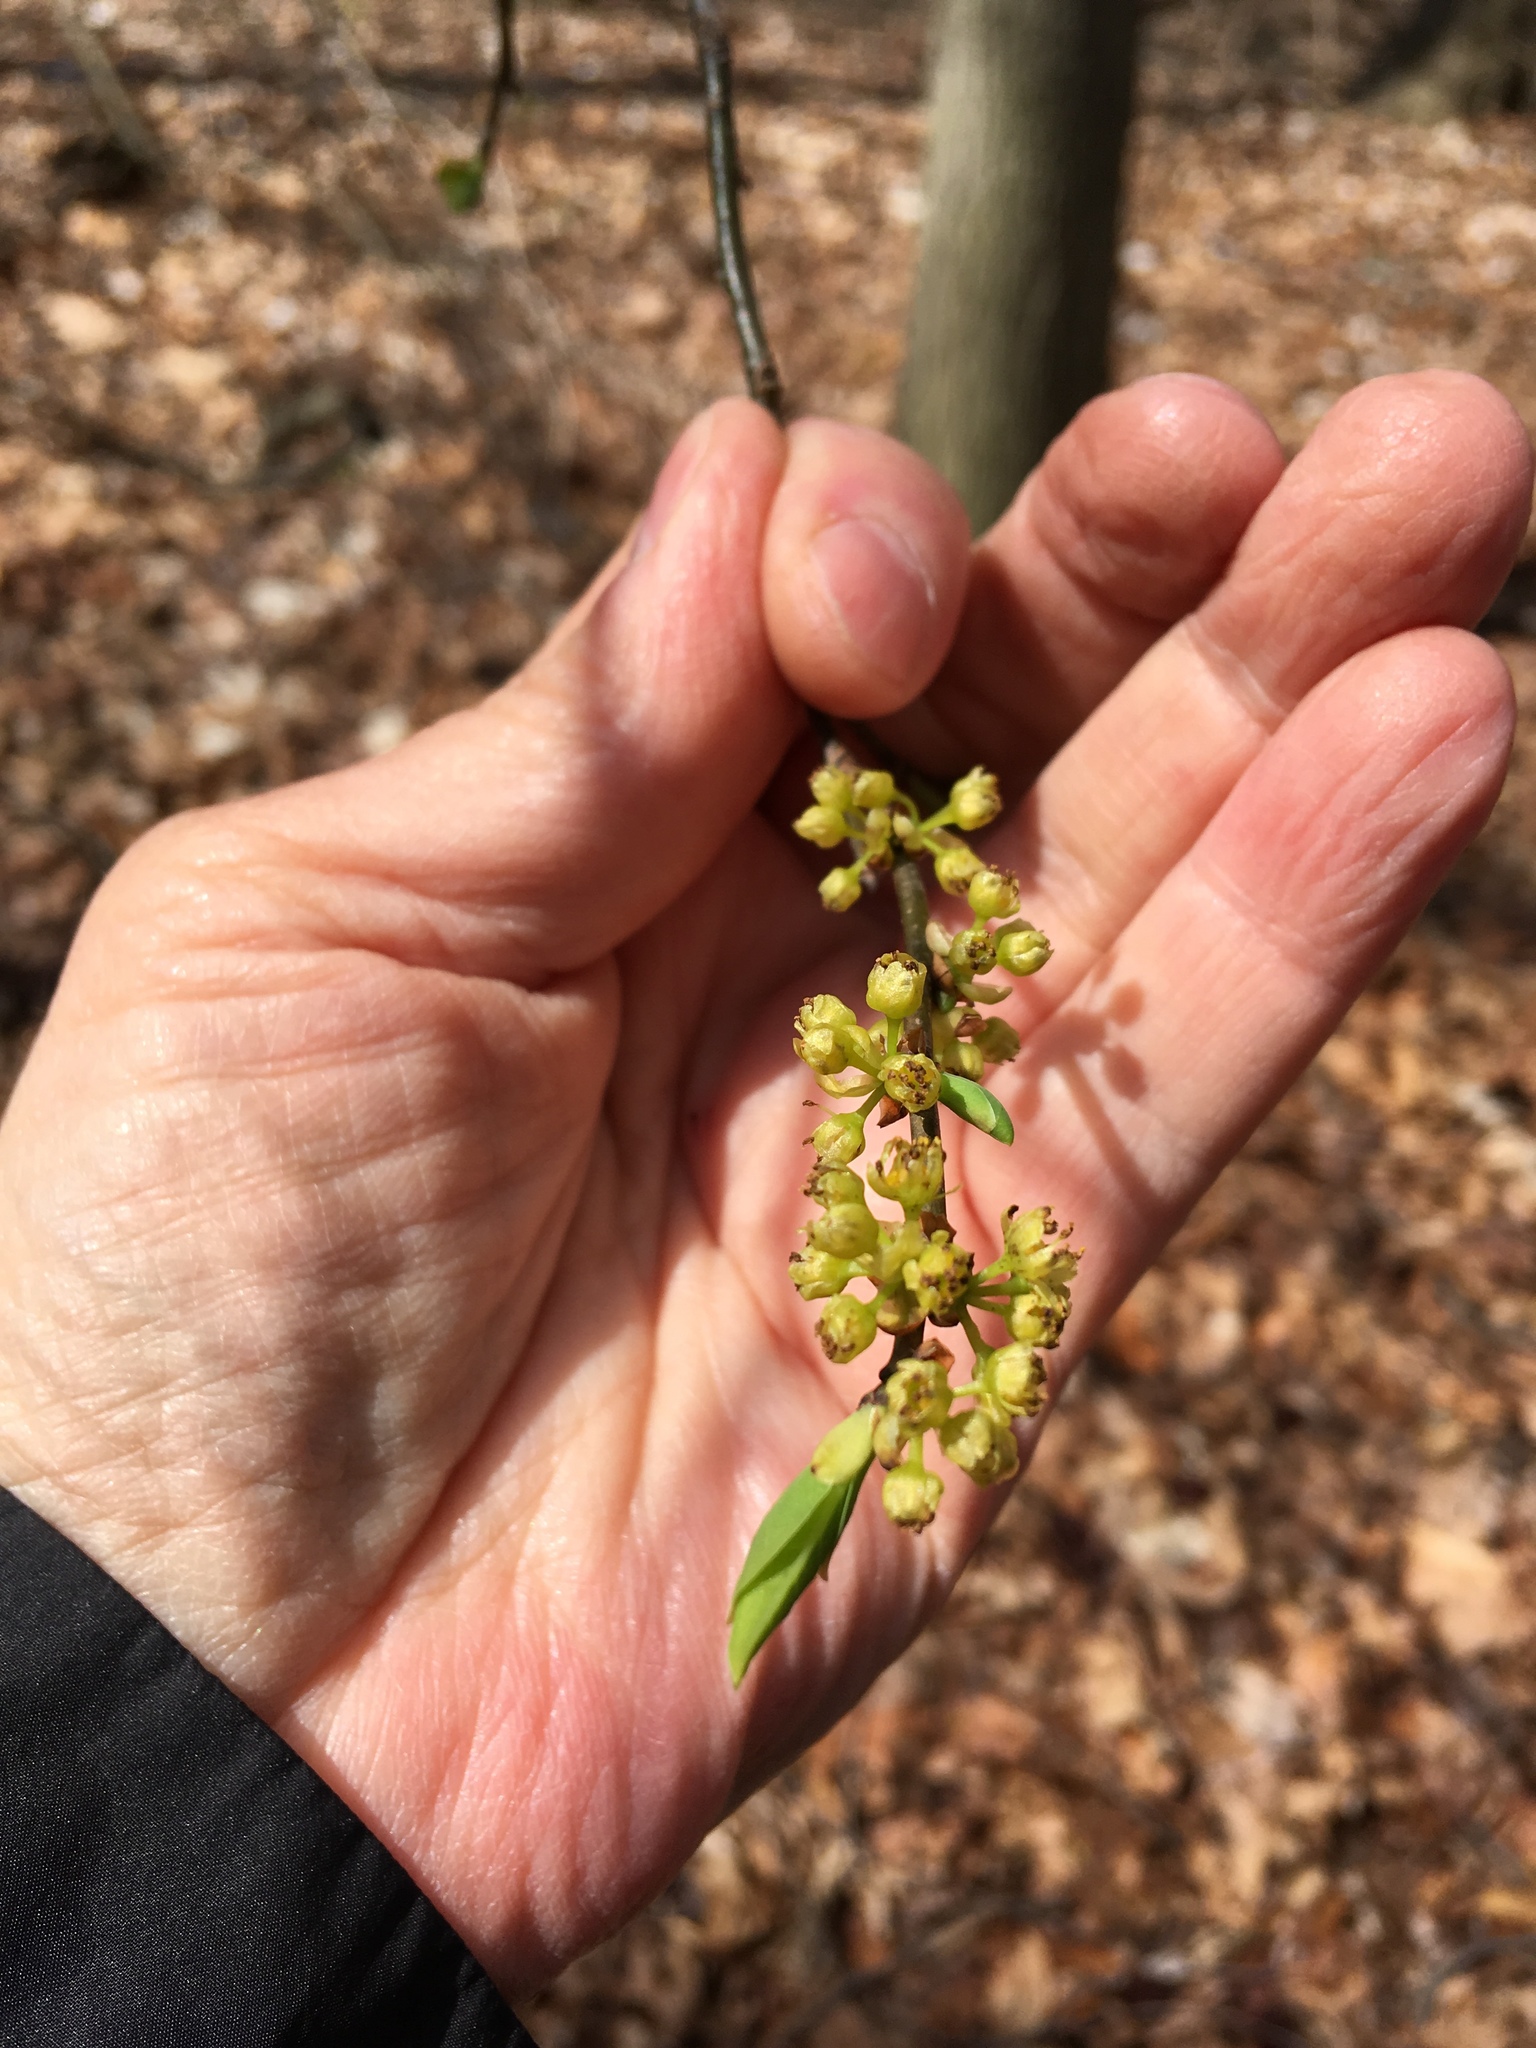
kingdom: Plantae
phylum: Tracheophyta
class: Magnoliopsida
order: Laurales
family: Lauraceae
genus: Lindera
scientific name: Lindera benzoin
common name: Spicebush
